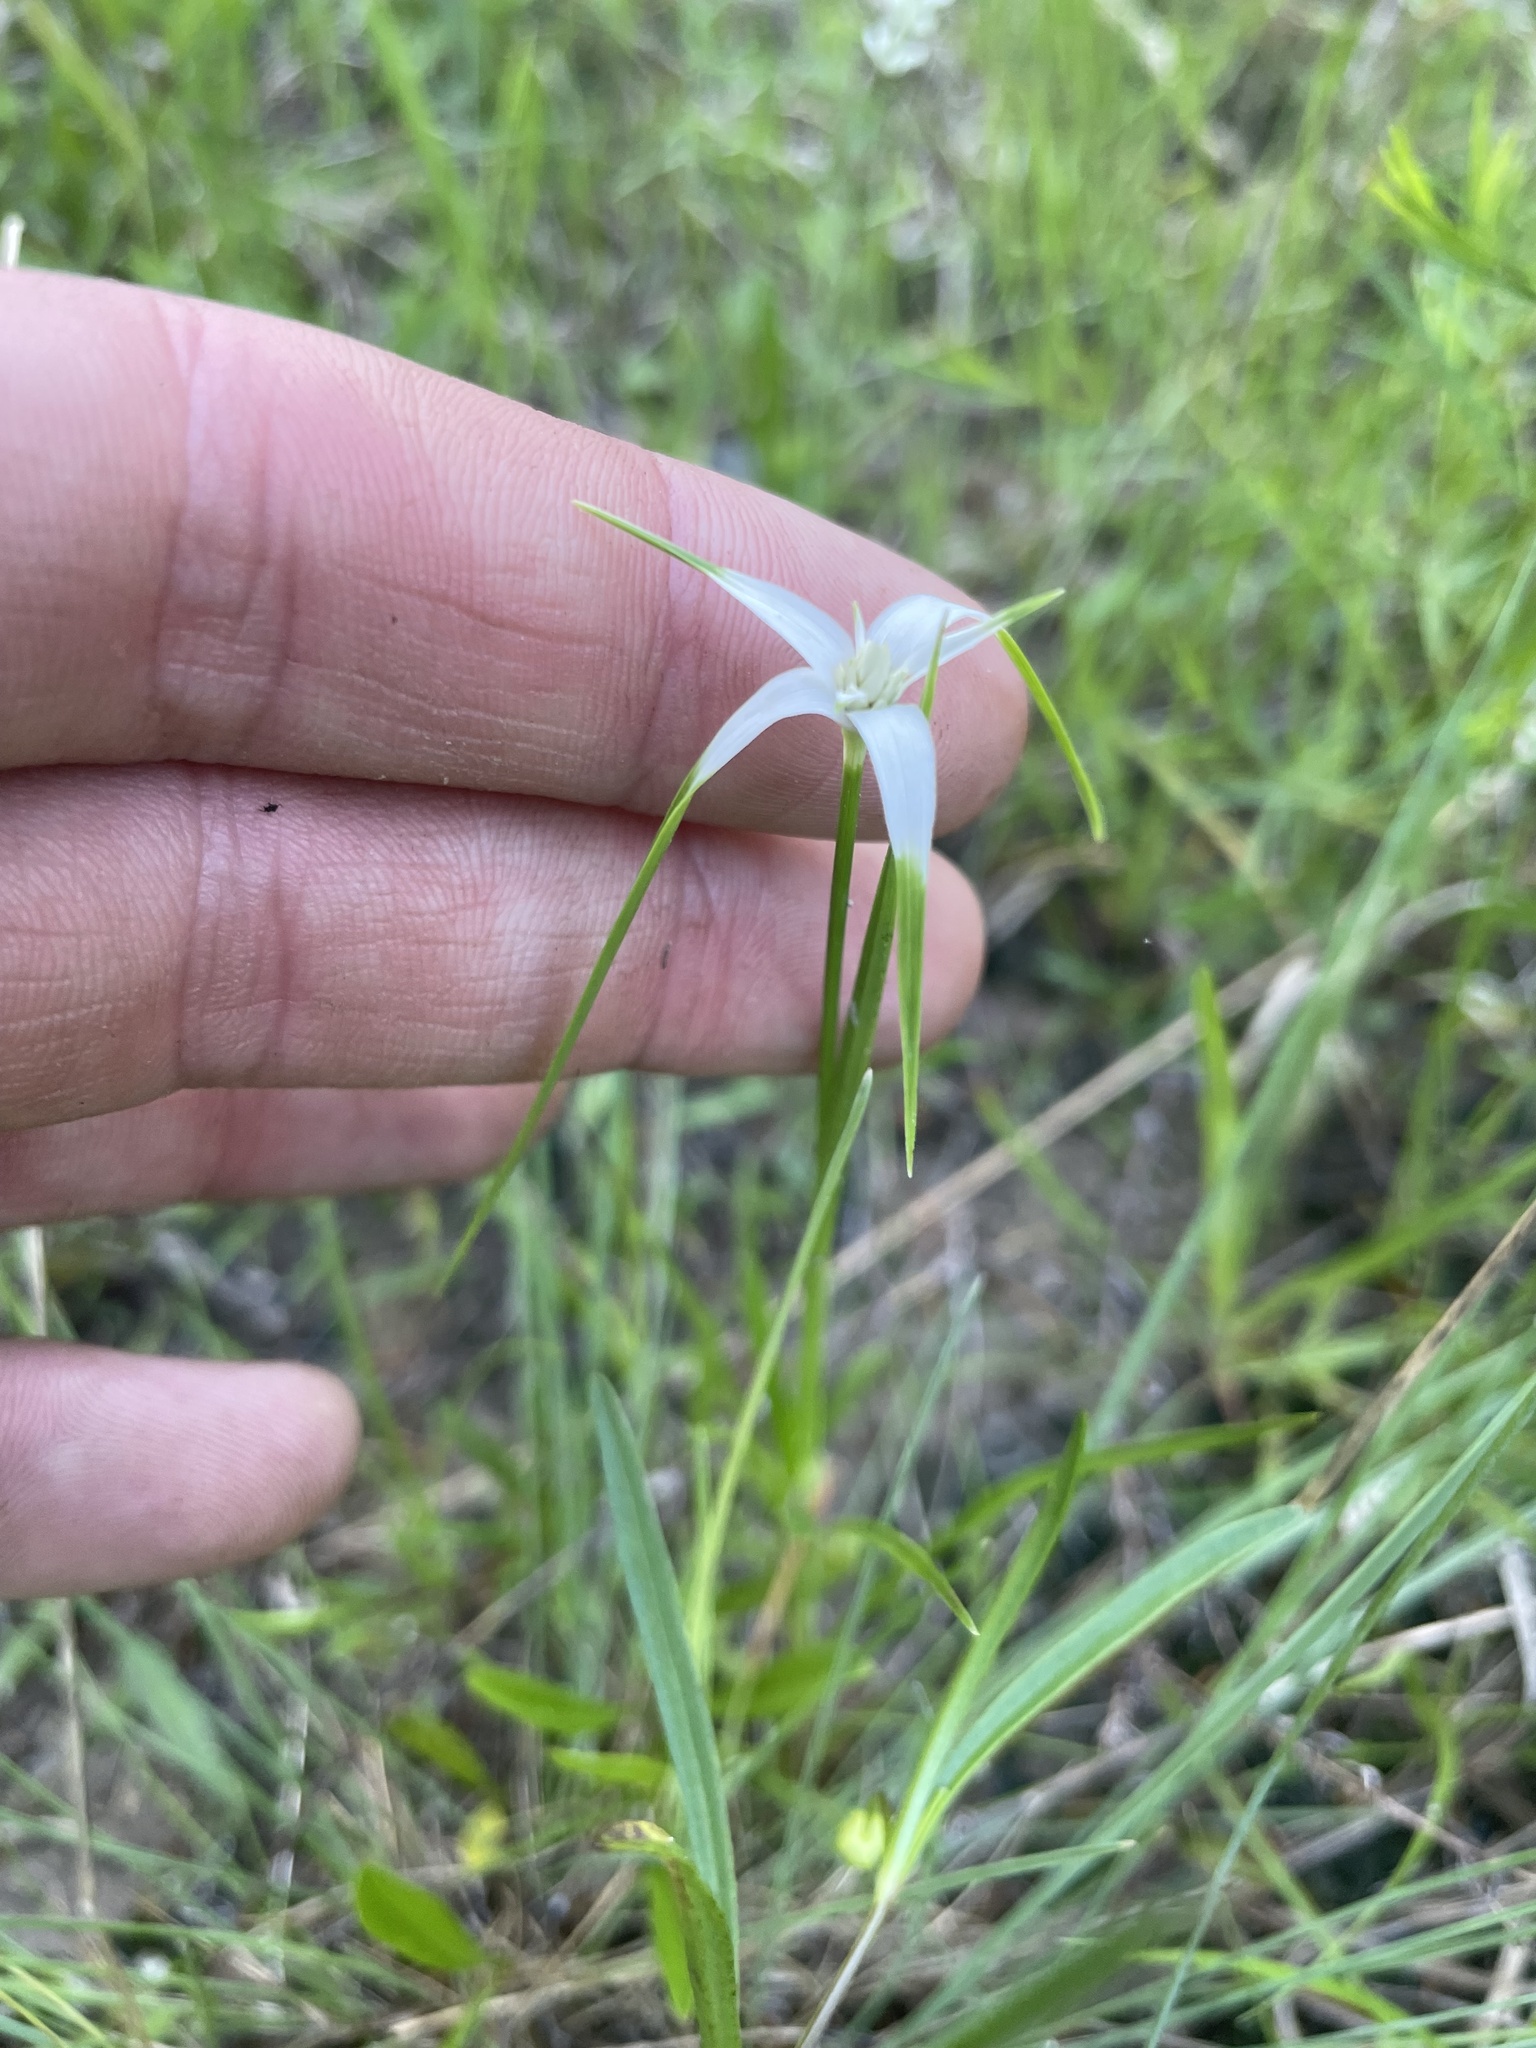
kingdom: Plantae
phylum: Tracheophyta
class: Liliopsida
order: Poales
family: Cyperaceae
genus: Rhynchospora
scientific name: Rhynchospora colorata
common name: Star sedge
